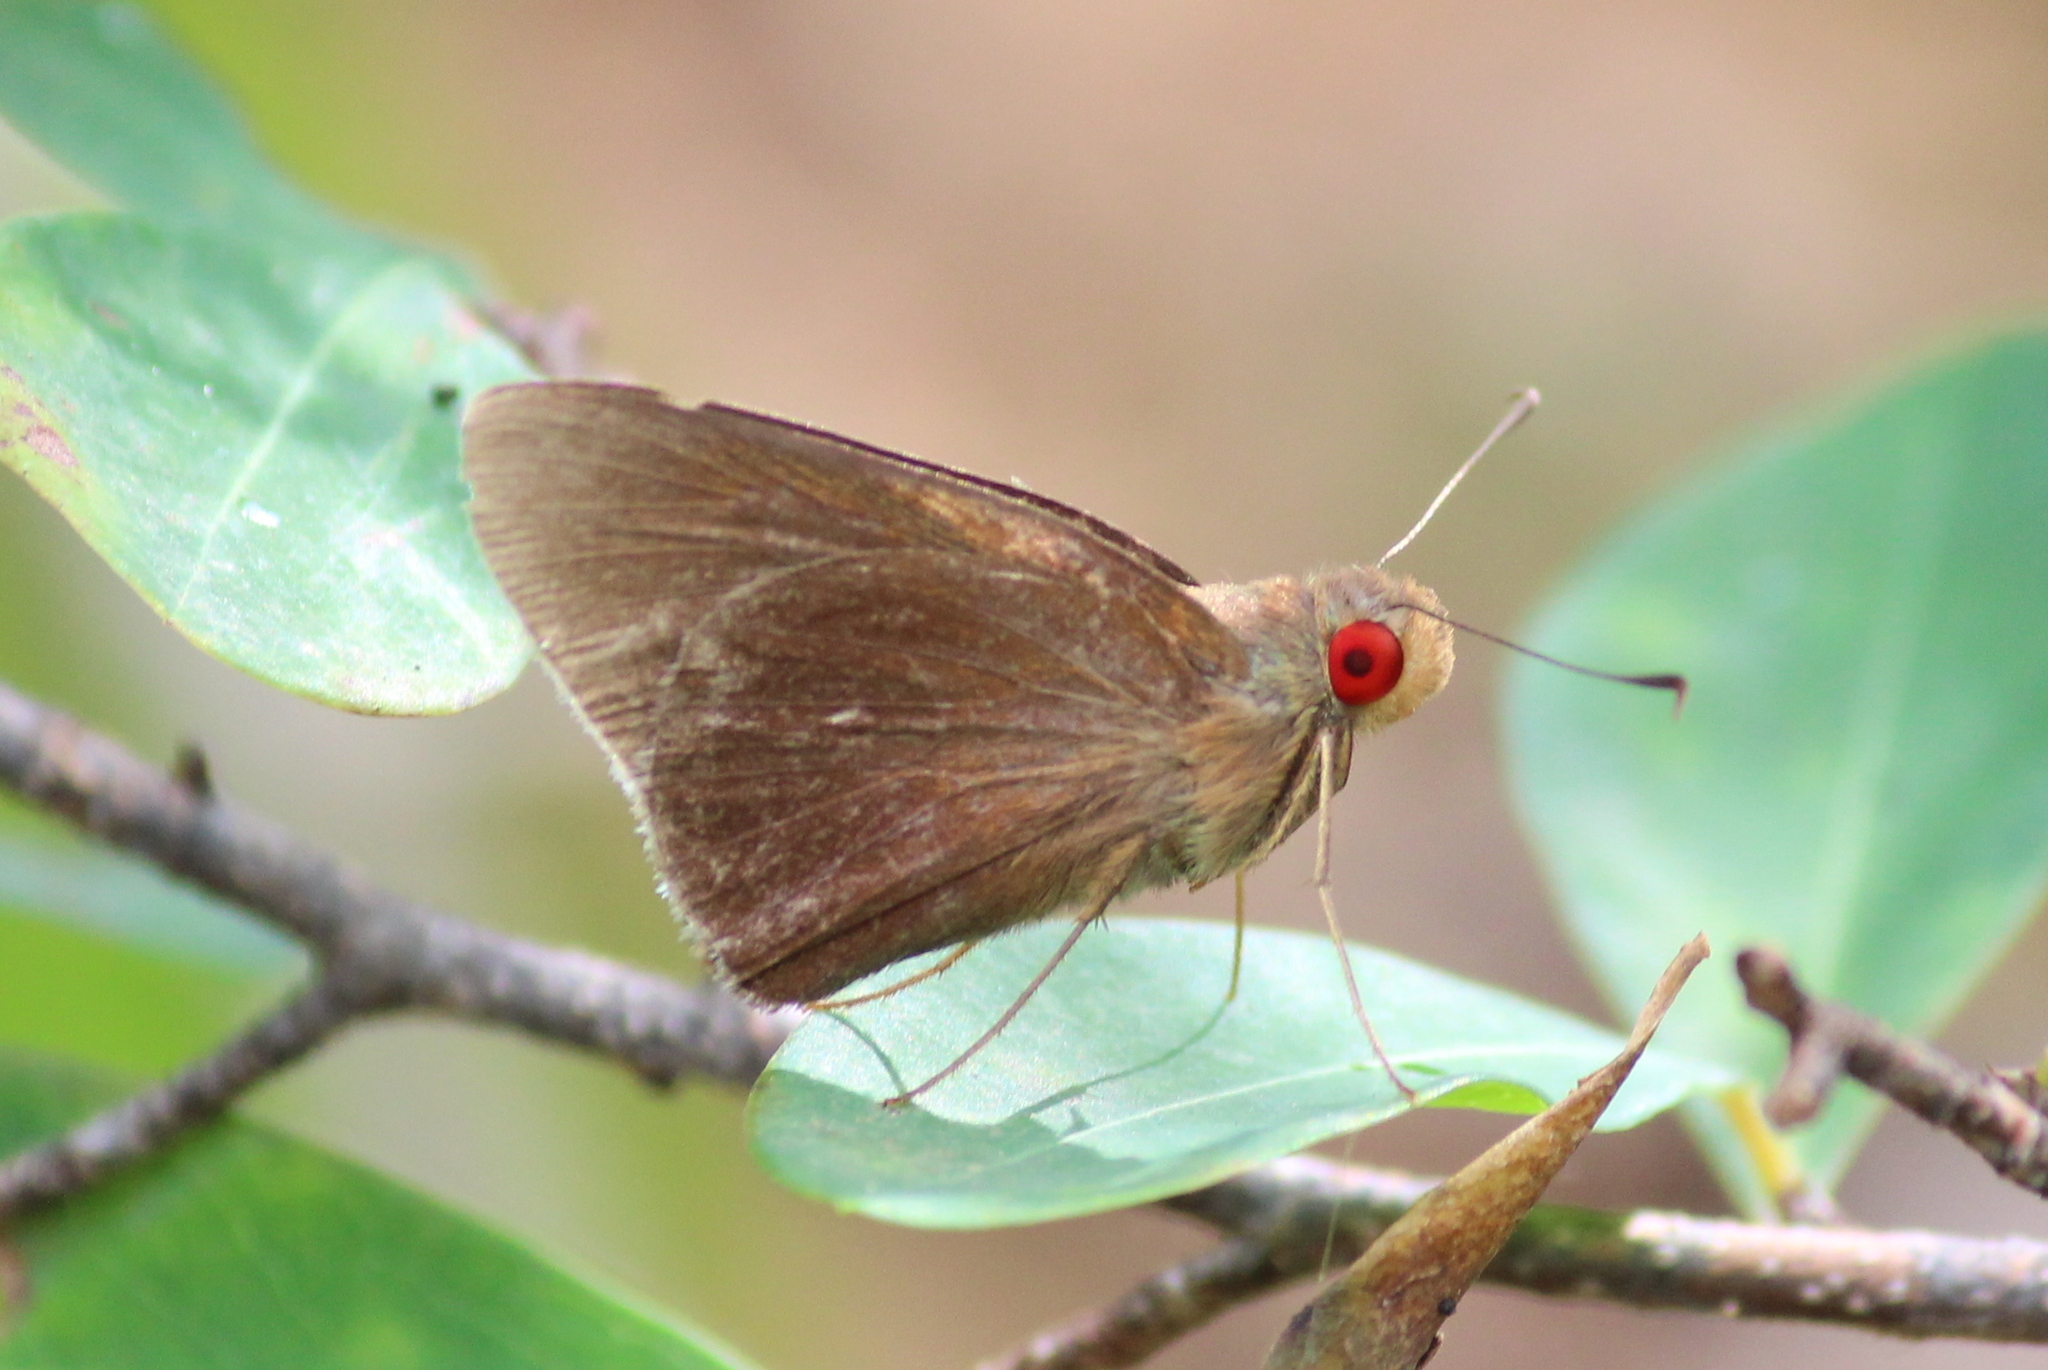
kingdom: Animalia
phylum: Arthropoda
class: Insecta
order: Lepidoptera
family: Hesperiidae
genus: Matapa
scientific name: Matapa aria
